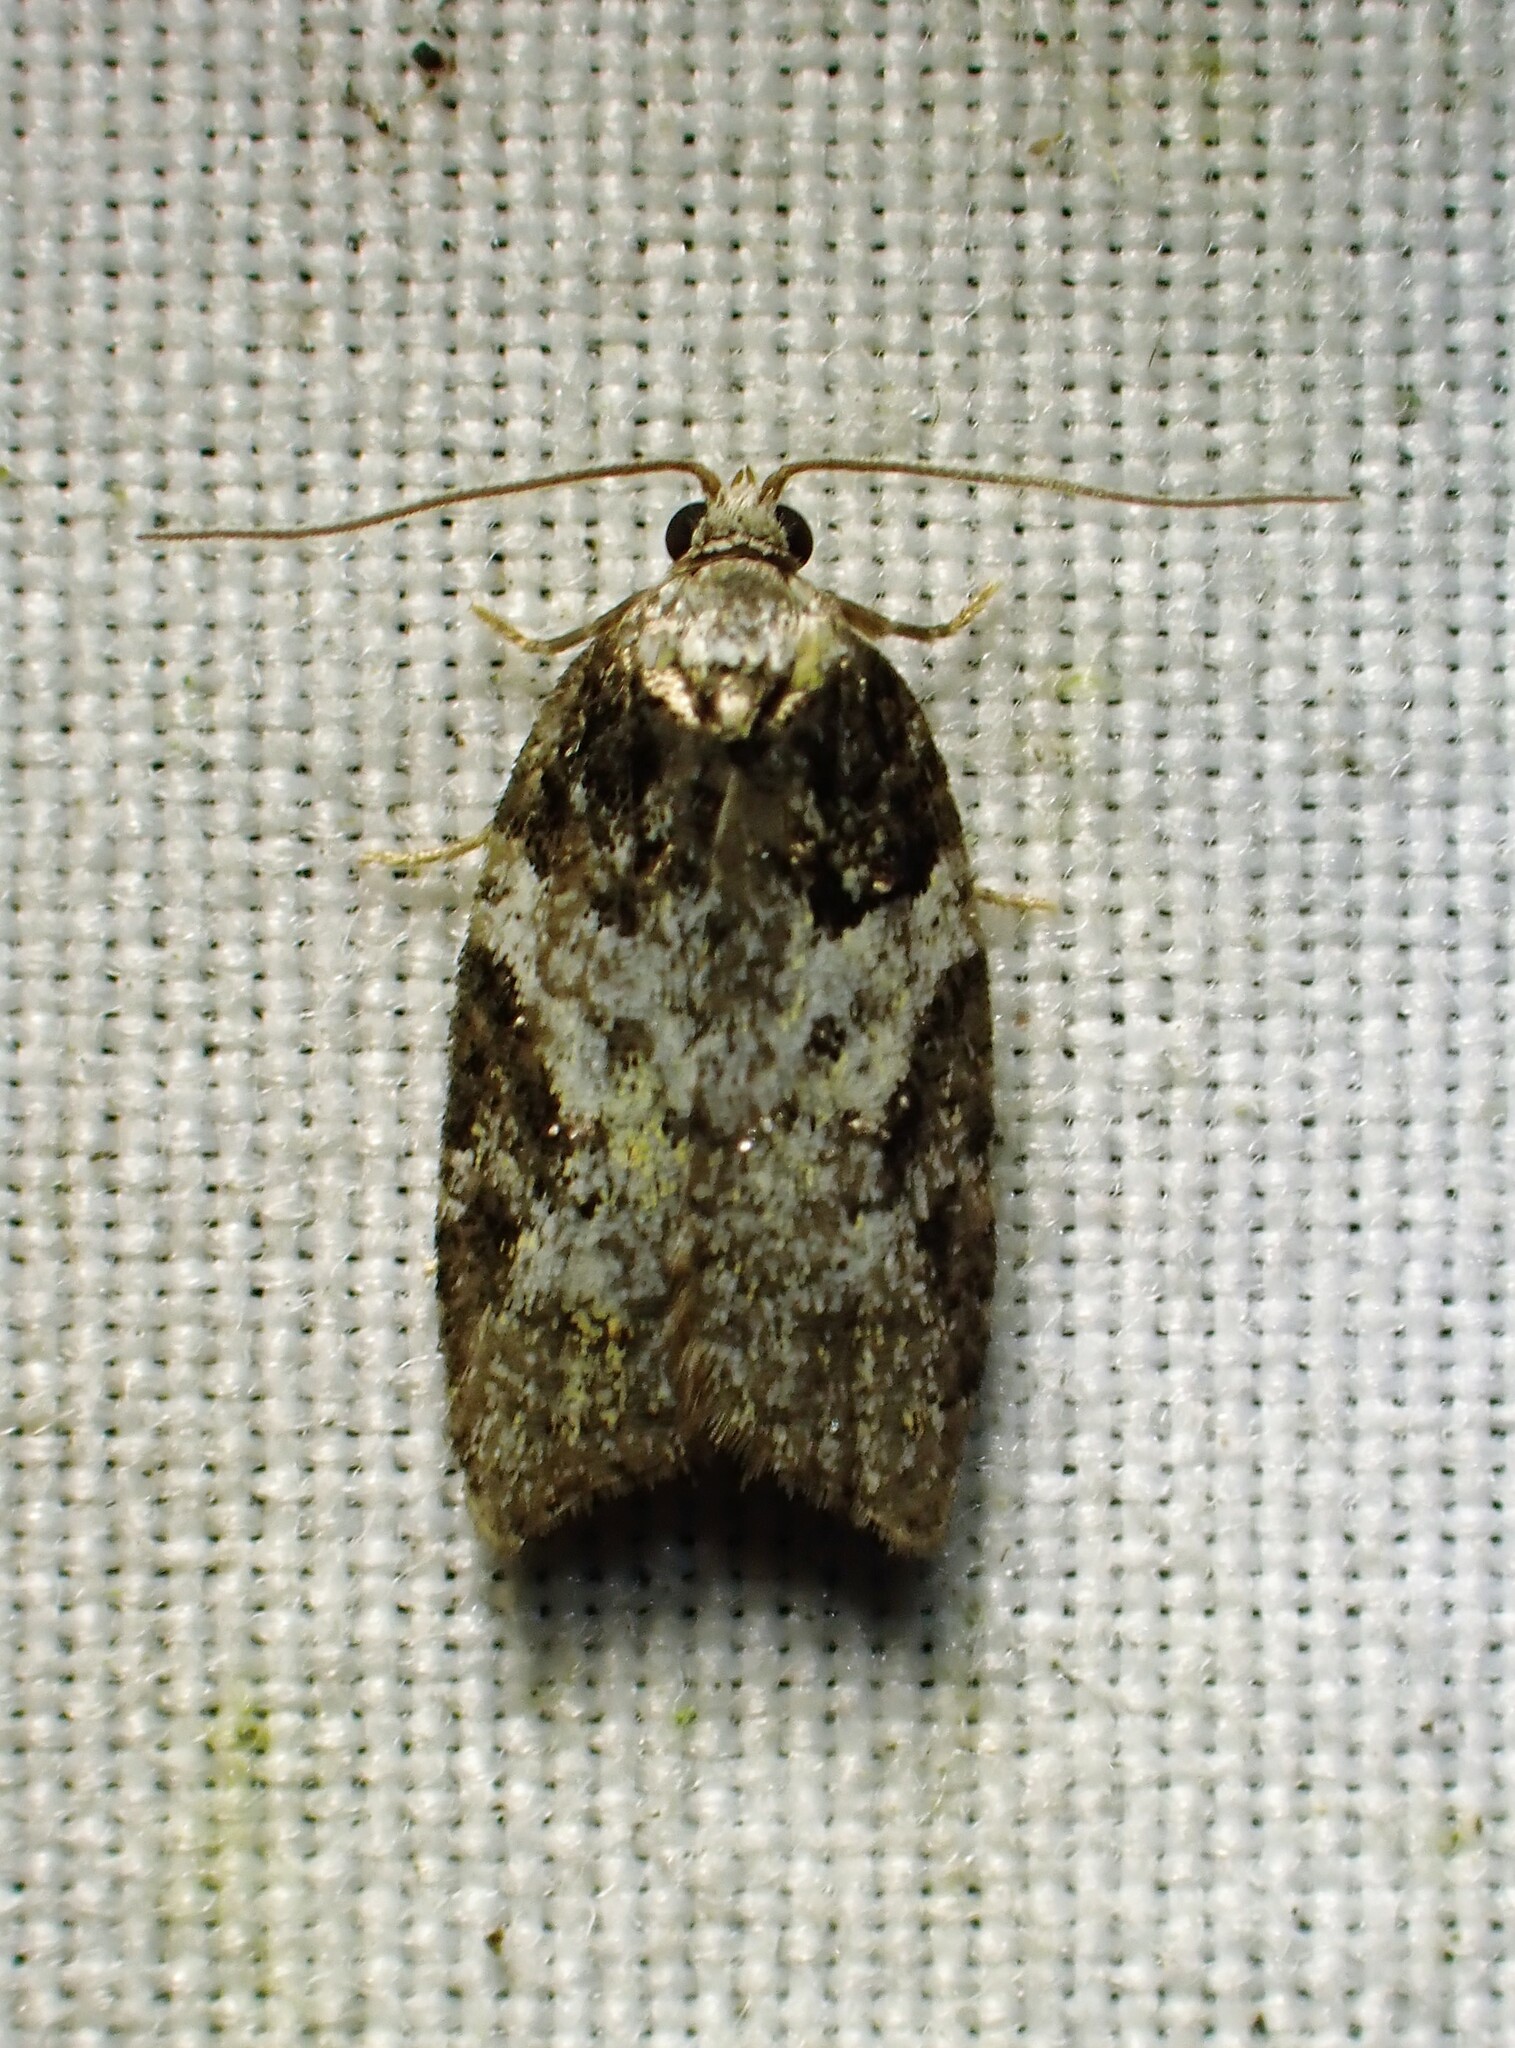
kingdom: Animalia
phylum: Arthropoda
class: Insecta
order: Lepidoptera
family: Tortricidae
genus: Acleris
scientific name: Acleris variana
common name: Eastern black-headed budworm moth
